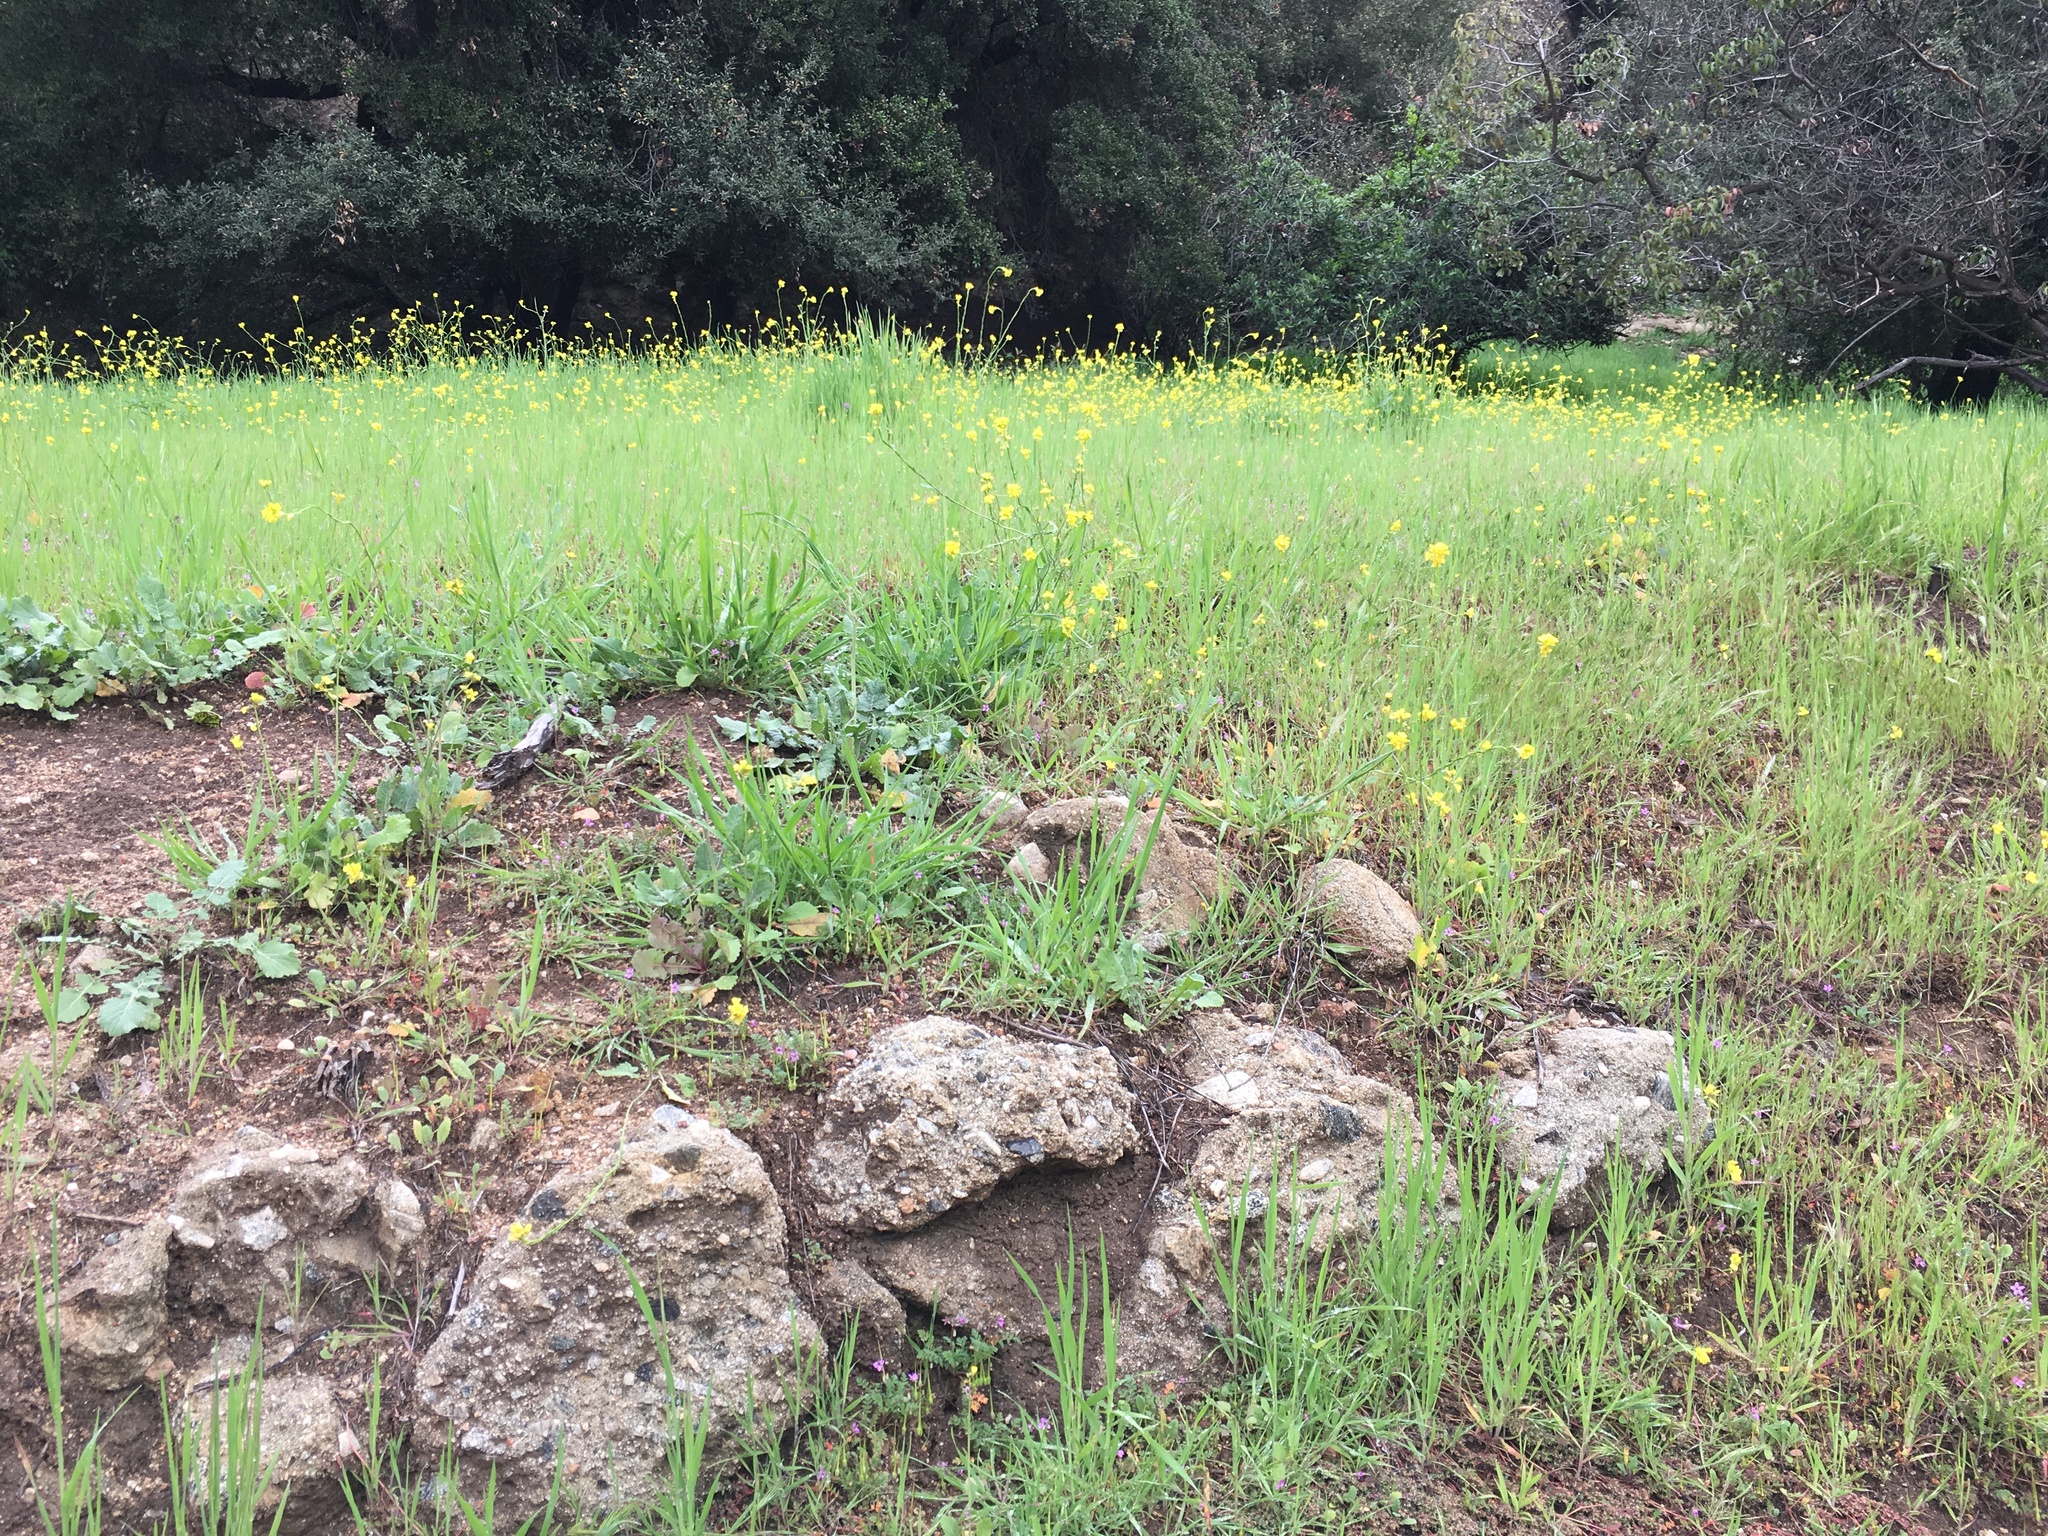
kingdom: Plantae
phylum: Tracheophyta
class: Magnoliopsida
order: Brassicales
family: Brassicaceae
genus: Hirschfeldia
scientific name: Hirschfeldia incana
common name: Hoary mustard
